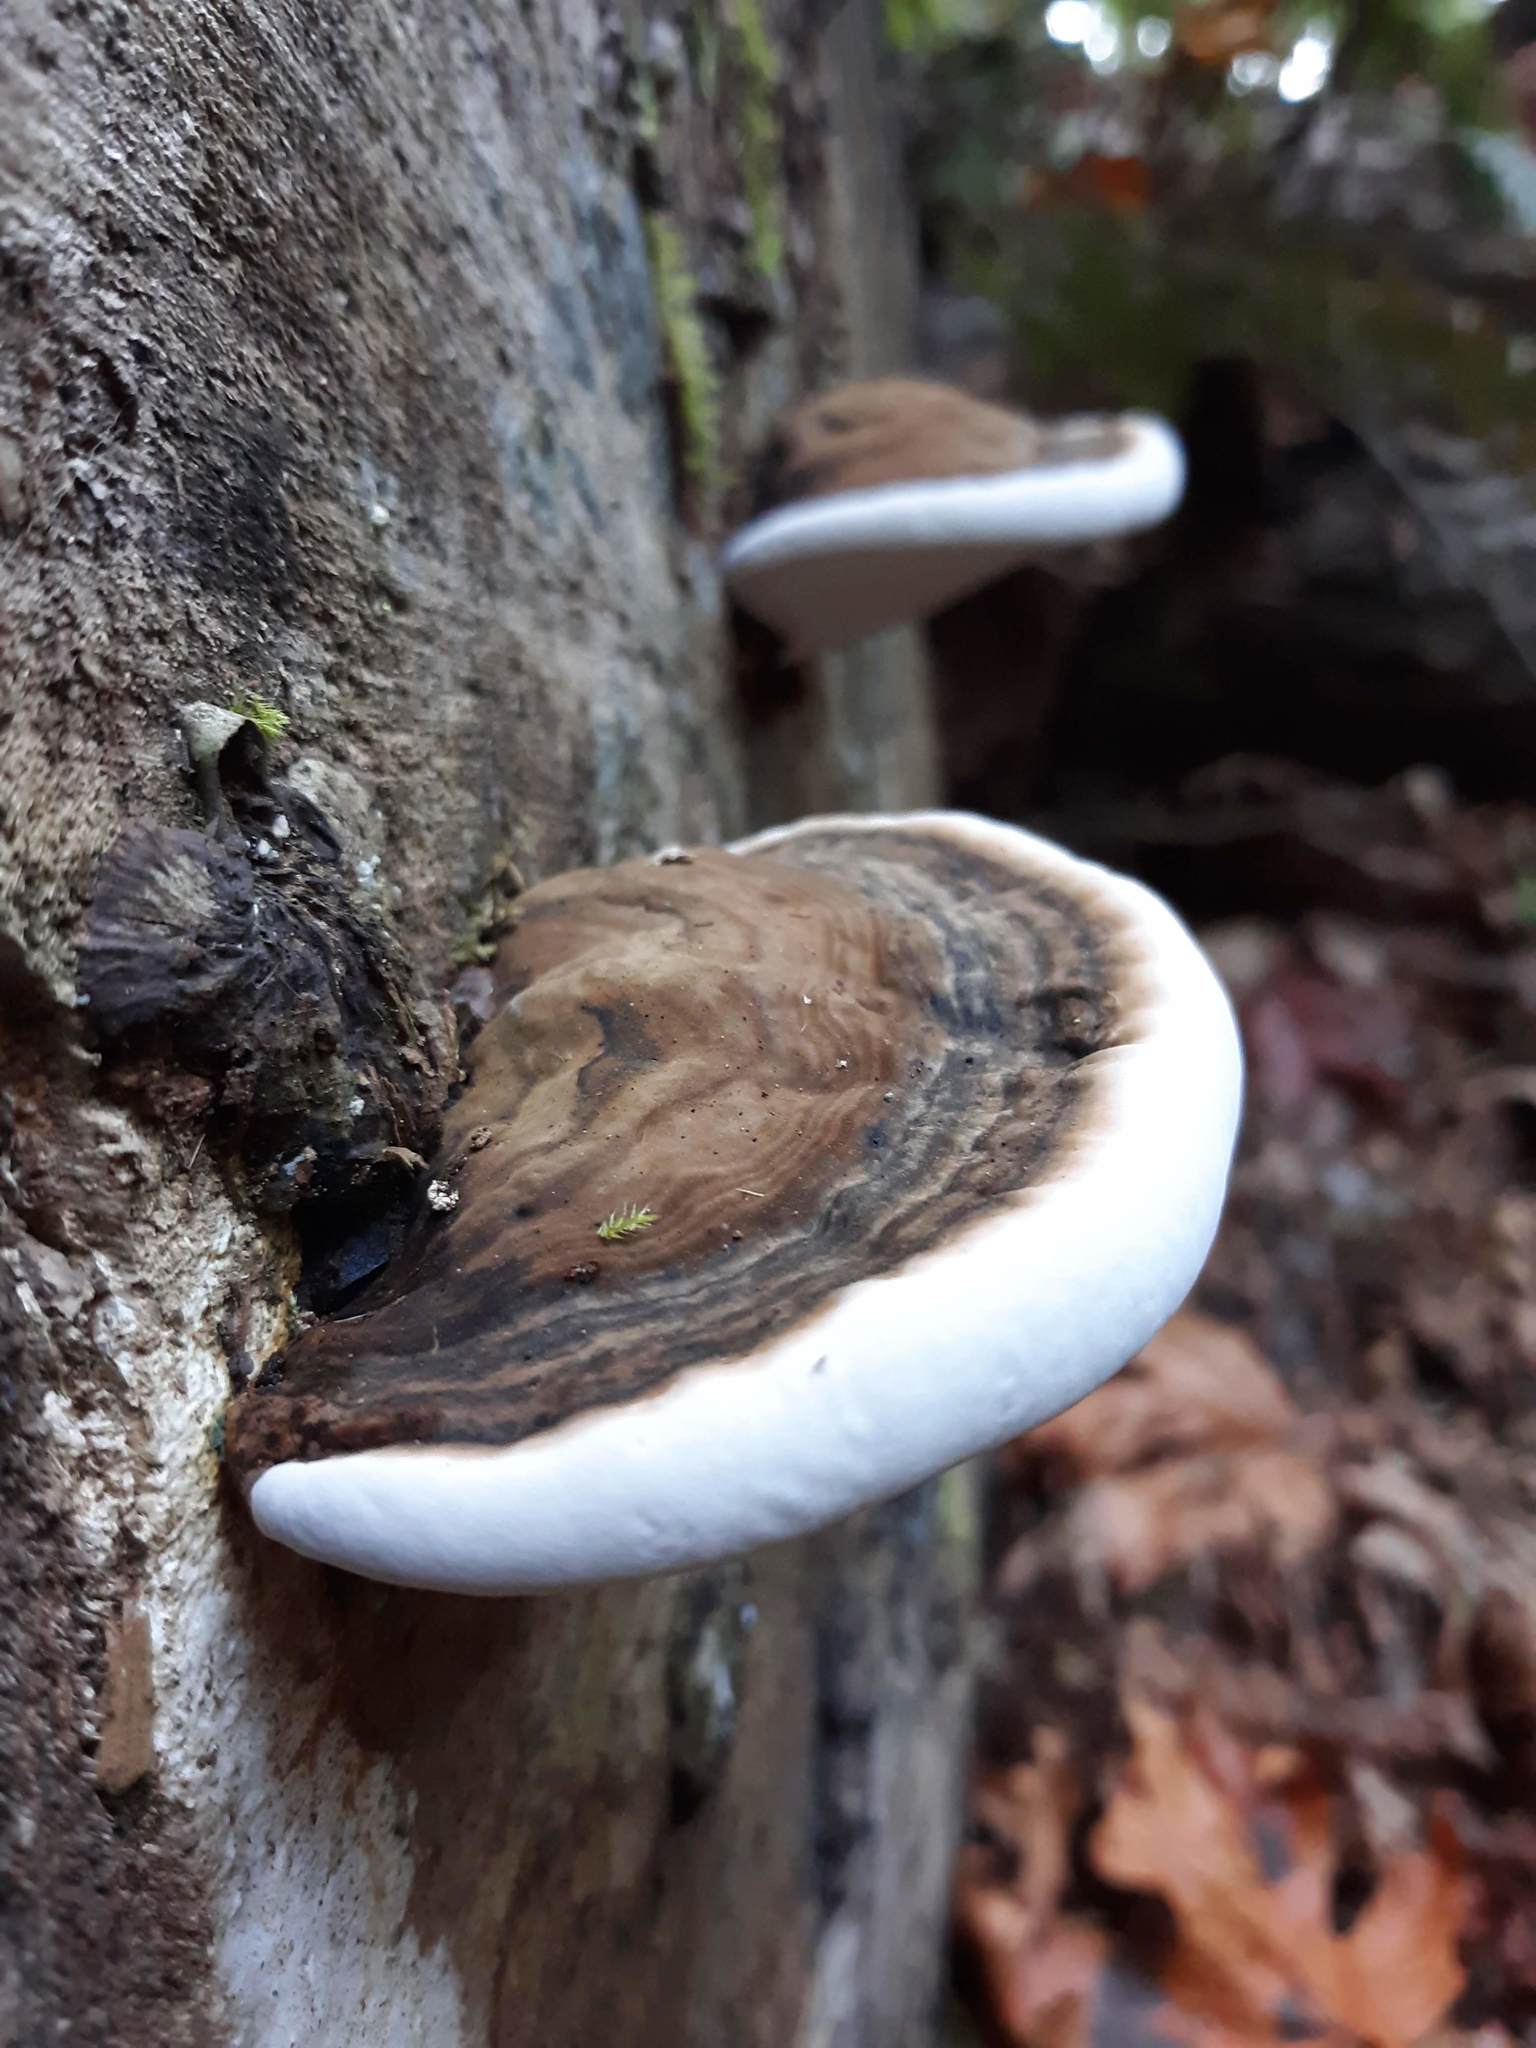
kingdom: Fungi
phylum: Basidiomycota
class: Agaricomycetes
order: Polyporales
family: Polyporaceae
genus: Ganoderma
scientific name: Ganoderma applanatum
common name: Artist's bracket
